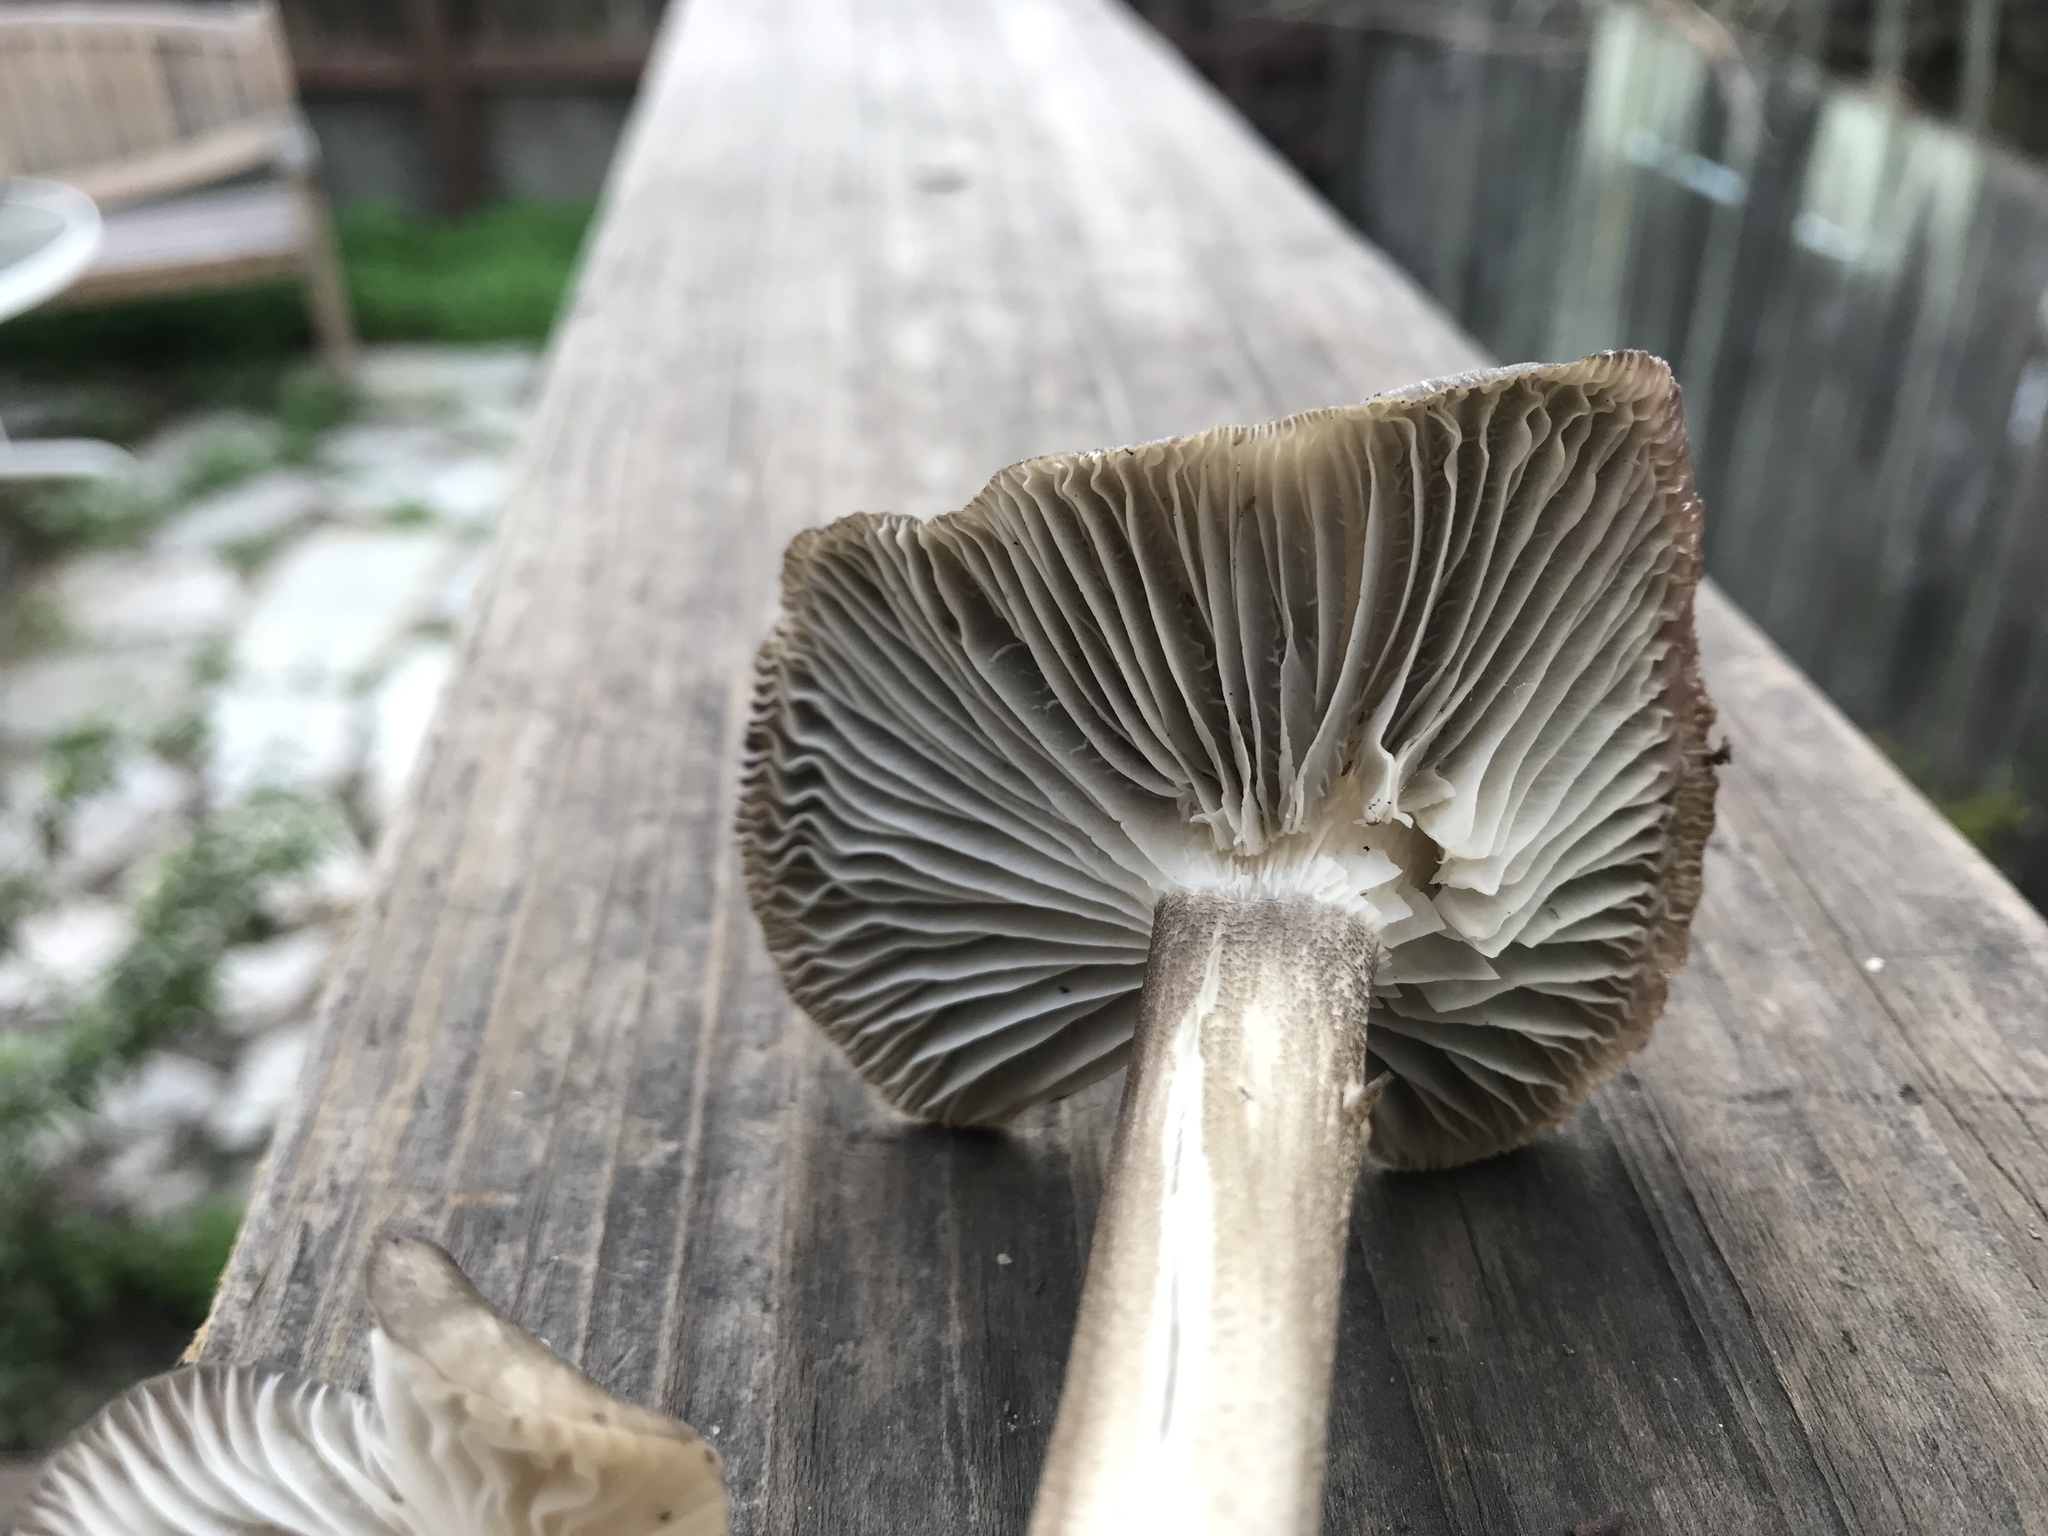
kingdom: Fungi
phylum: Basidiomycota
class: Agaricomycetes
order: Agaricales
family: Marasmiaceae
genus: Gerronema
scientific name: Gerronema atrialbum
